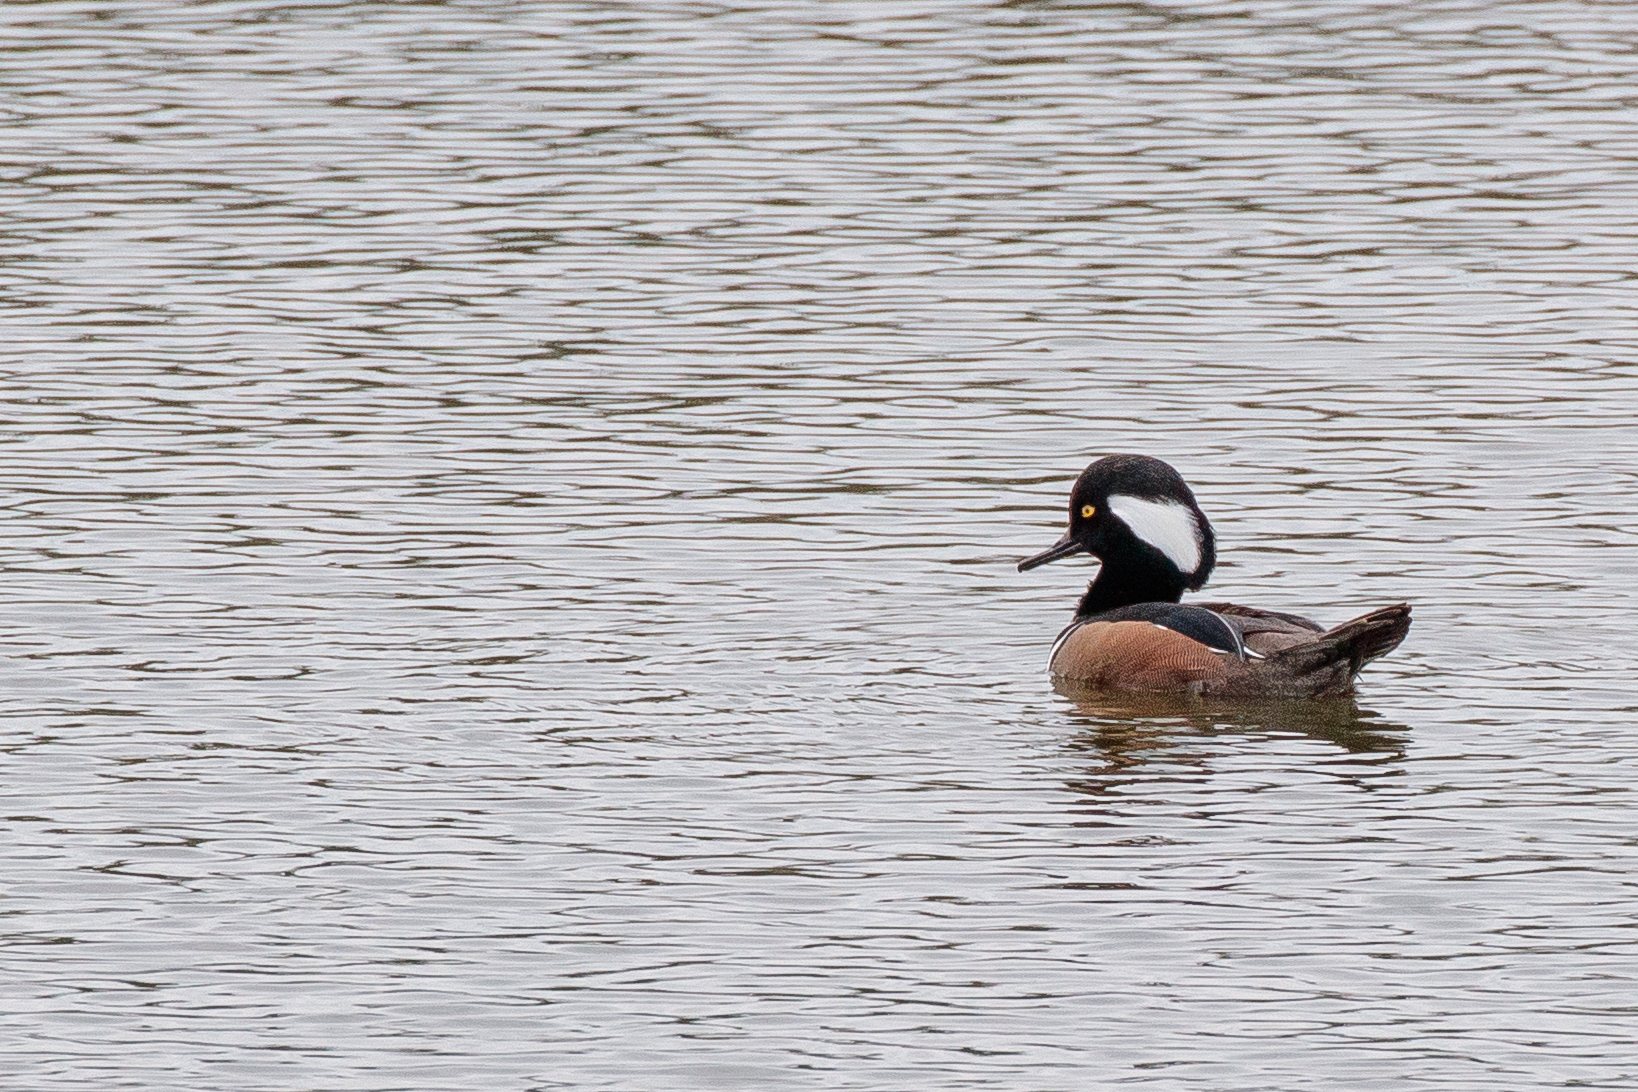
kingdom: Animalia
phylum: Chordata
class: Aves
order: Anseriformes
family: Anatidae
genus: Lophodytes
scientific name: Lophodytes cucullatus
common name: Hooded merganser
